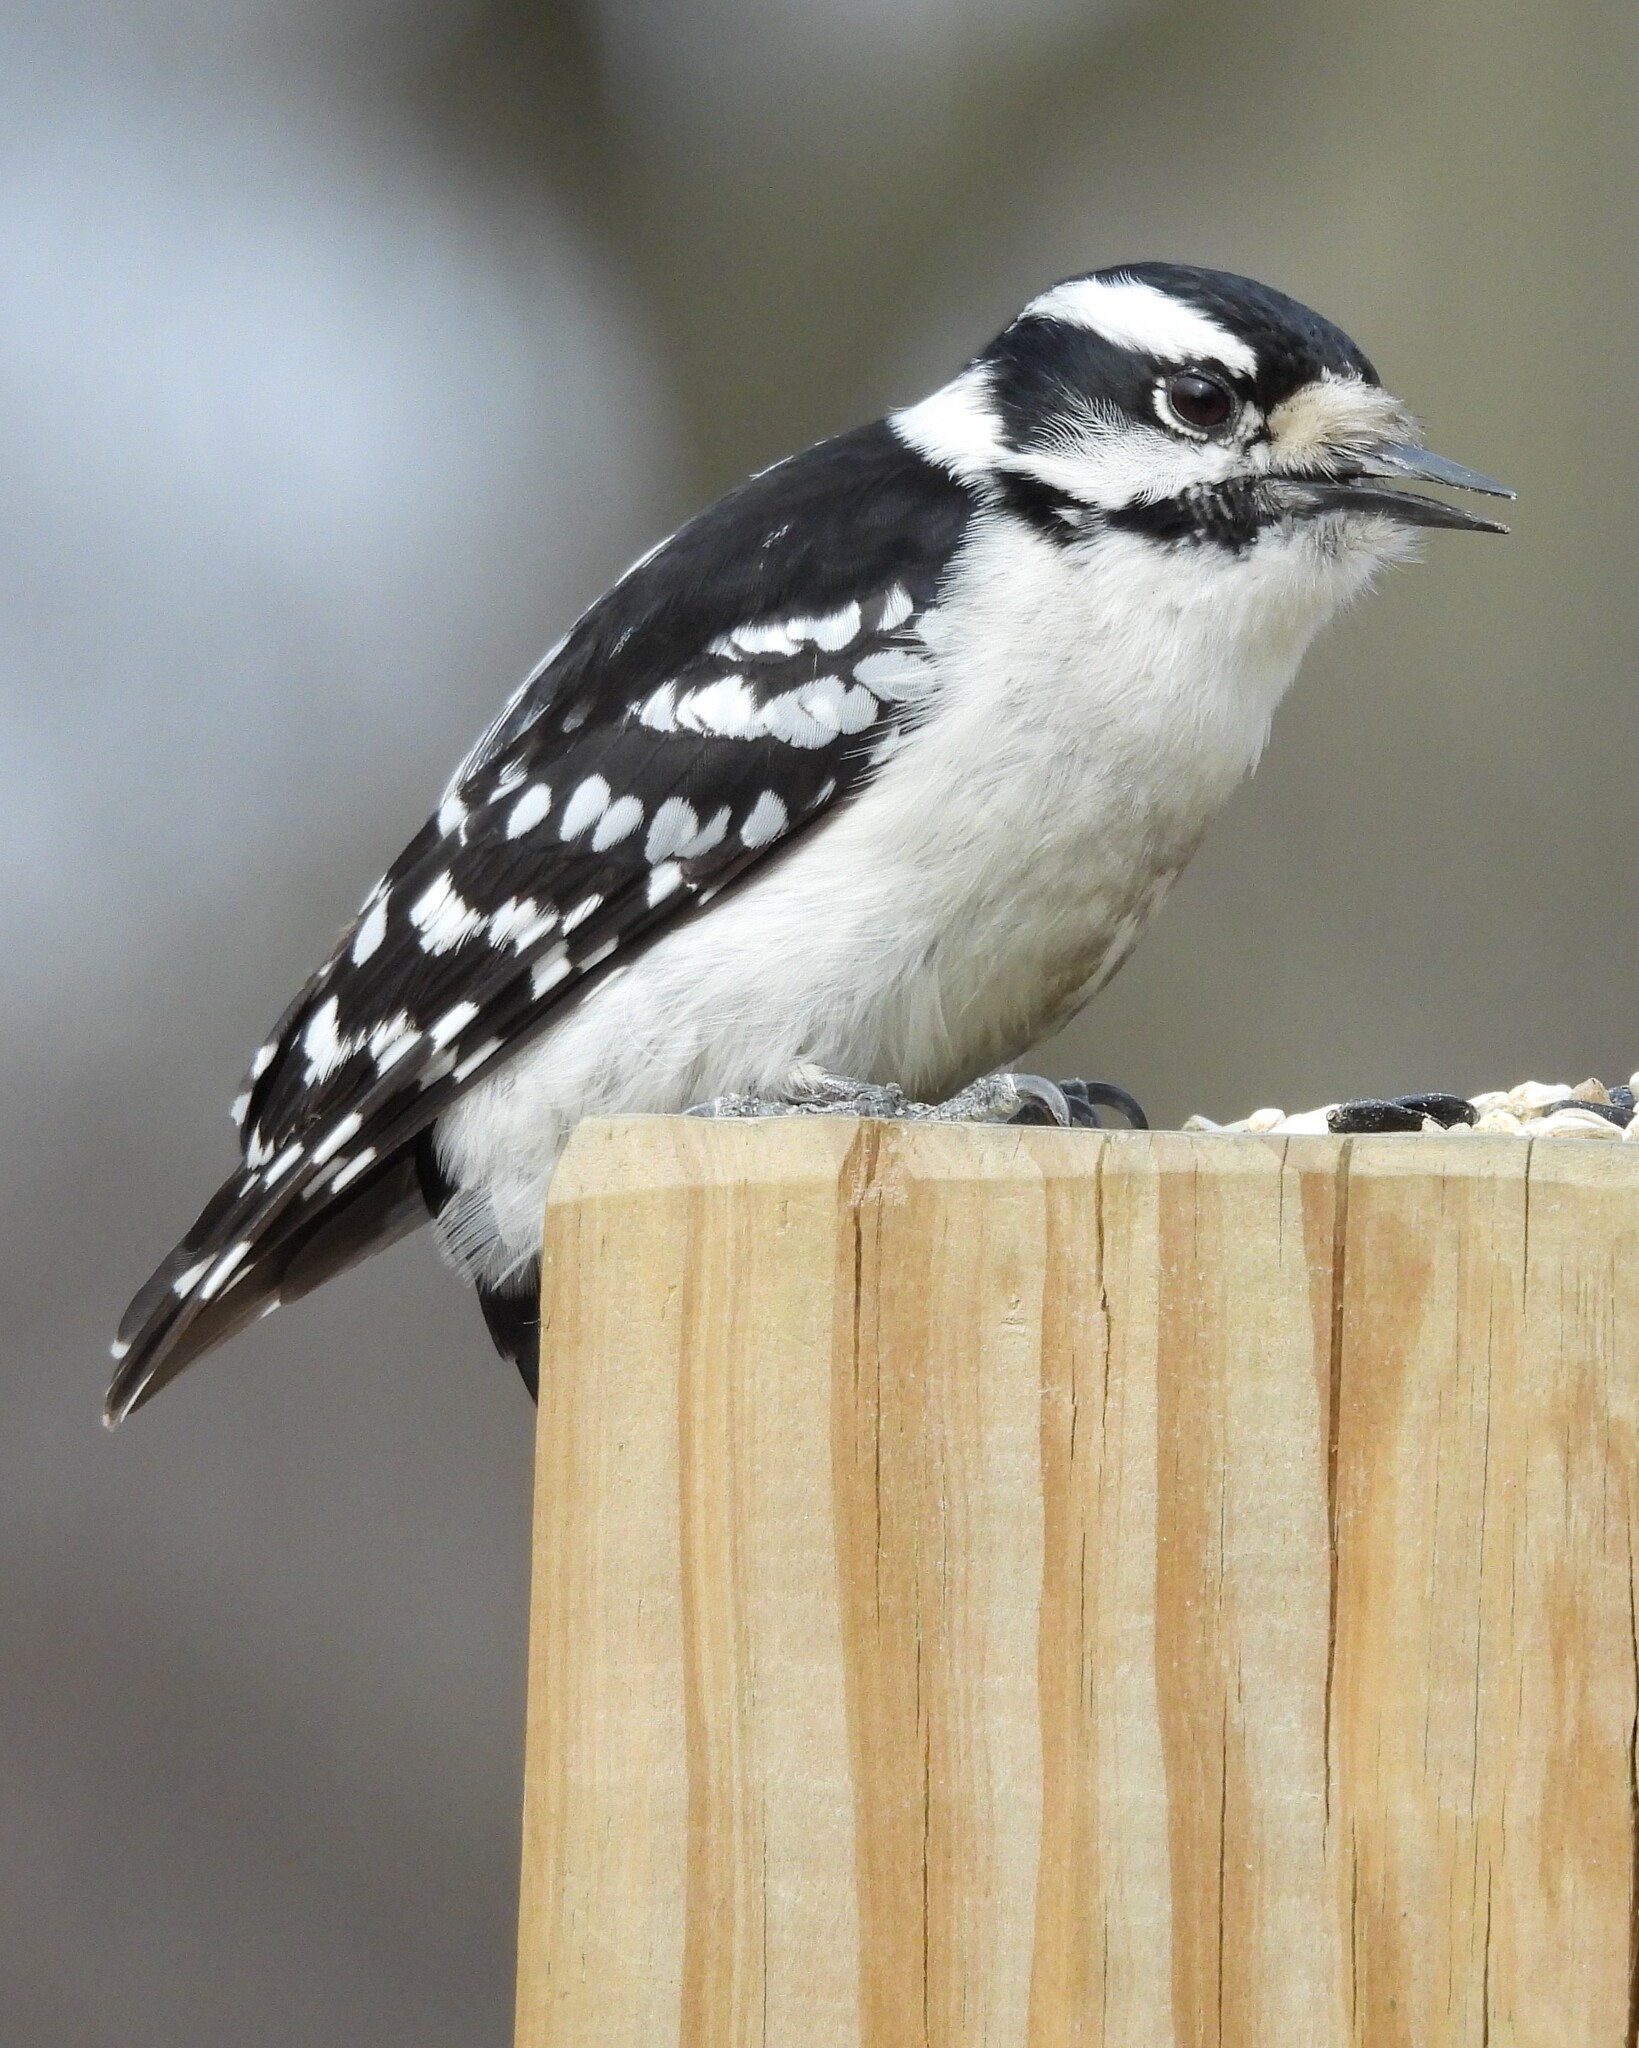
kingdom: Animalia
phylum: Chordata
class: Aves
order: Piciformes
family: Picidae
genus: Dryobates
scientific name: Dryobates pubescens
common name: Downy woodpecker
